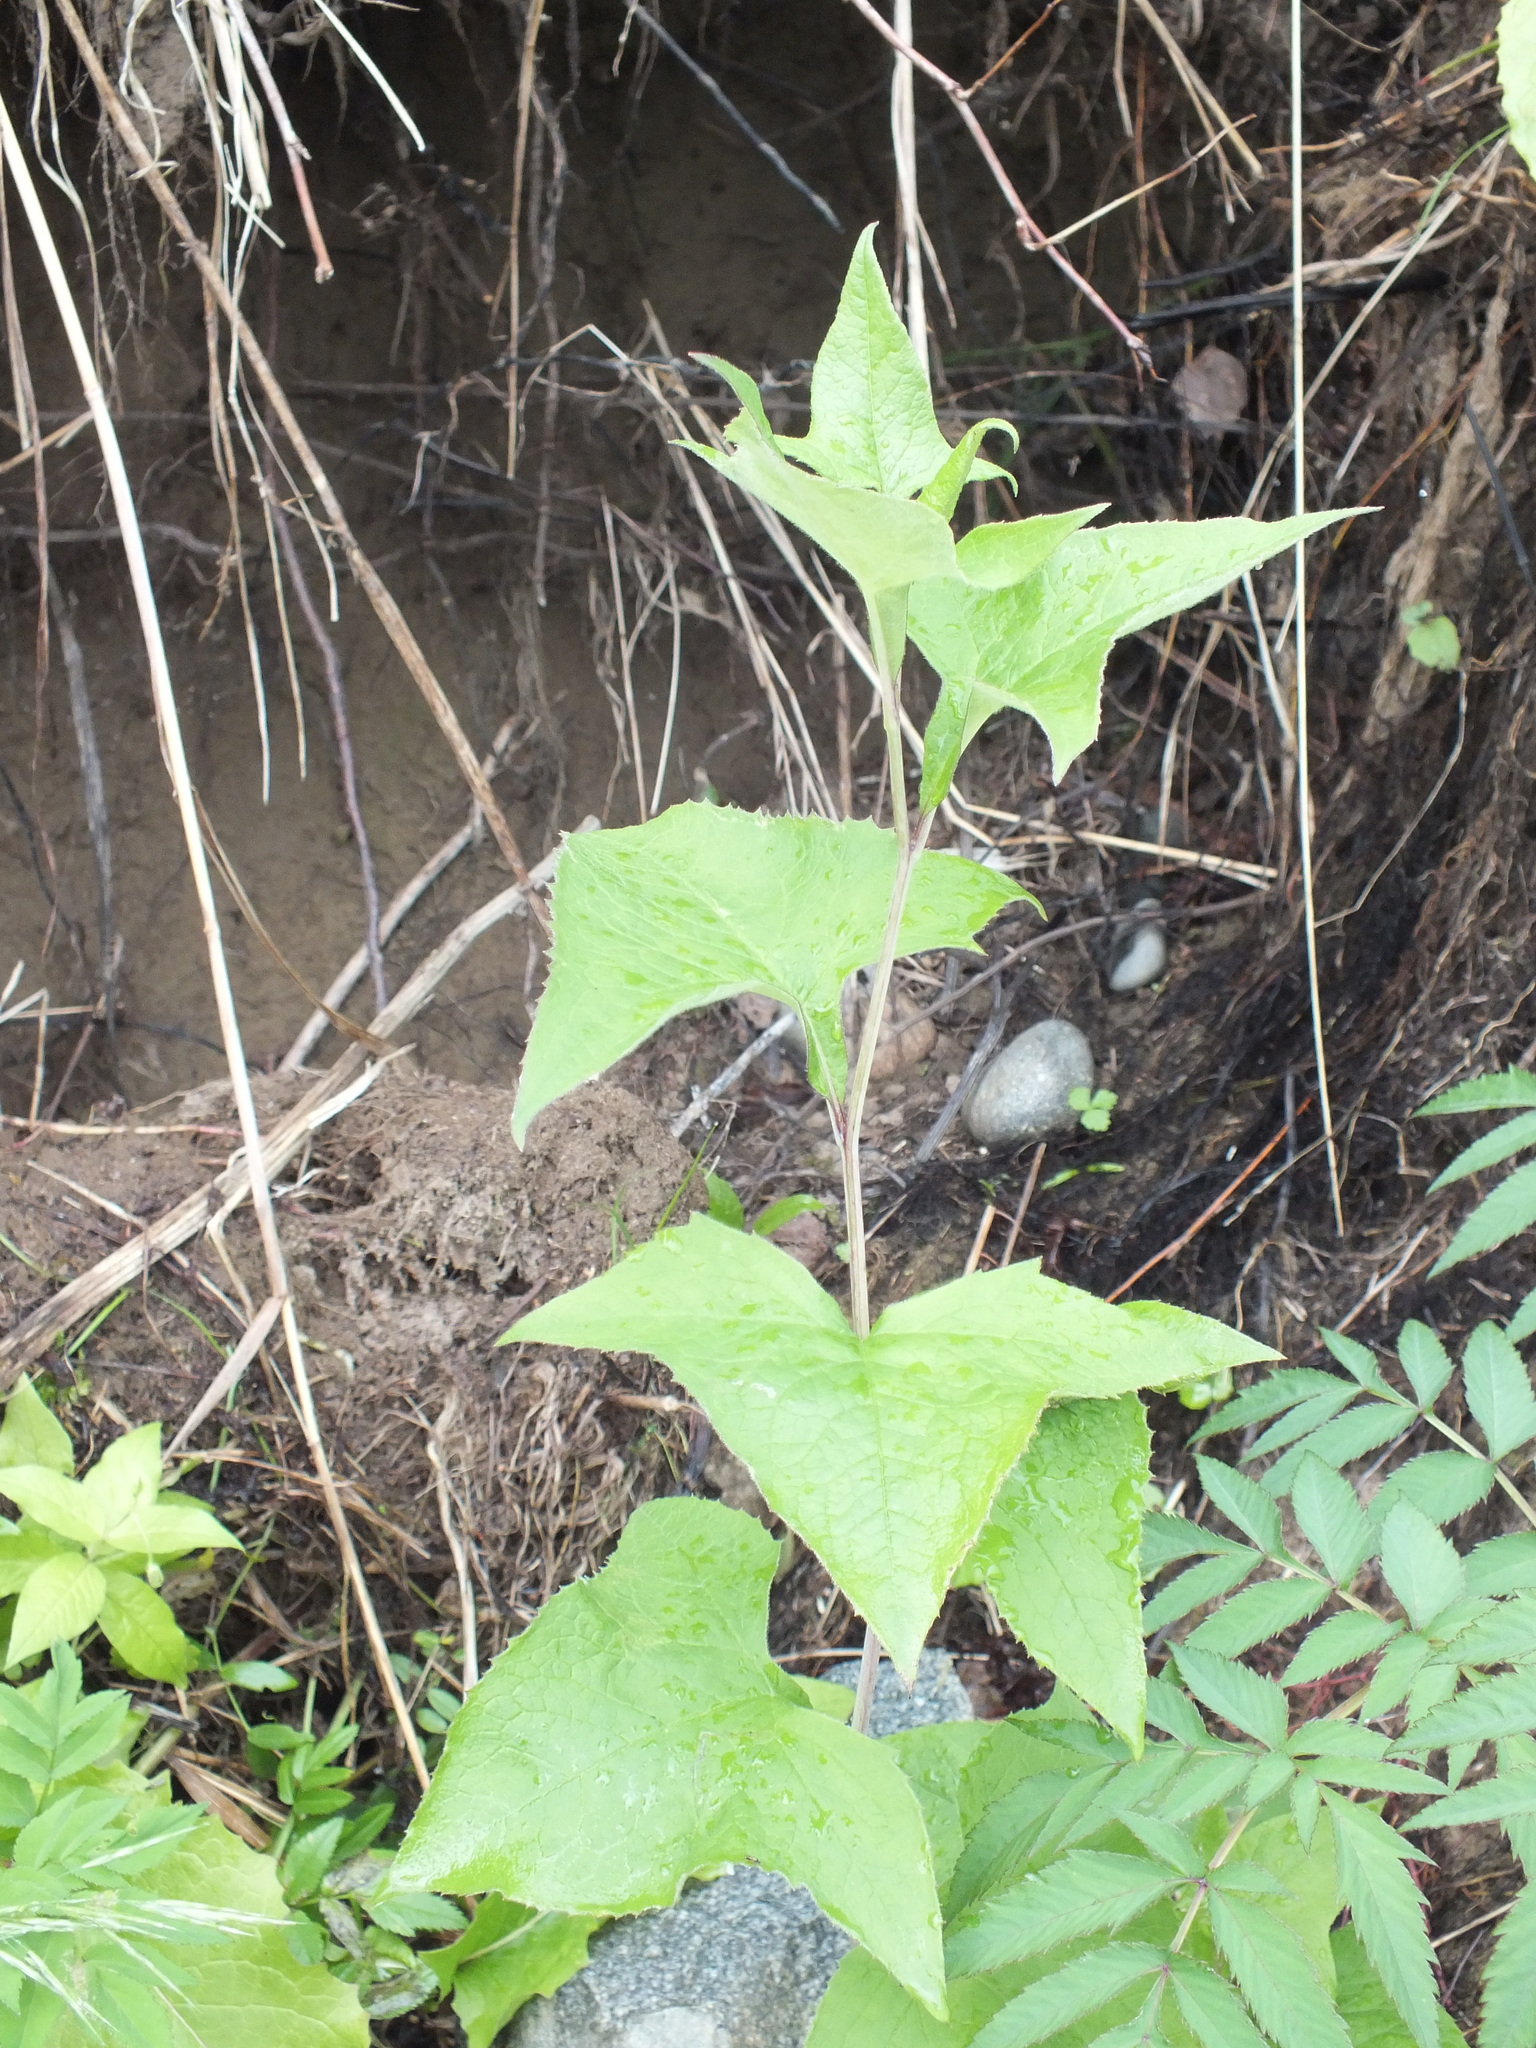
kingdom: Plantae
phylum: Tracheophyta
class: Magnoliopsida
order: Asterales
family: Asteraceae
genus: Parasenecio
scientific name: Parasenecio hastatus
